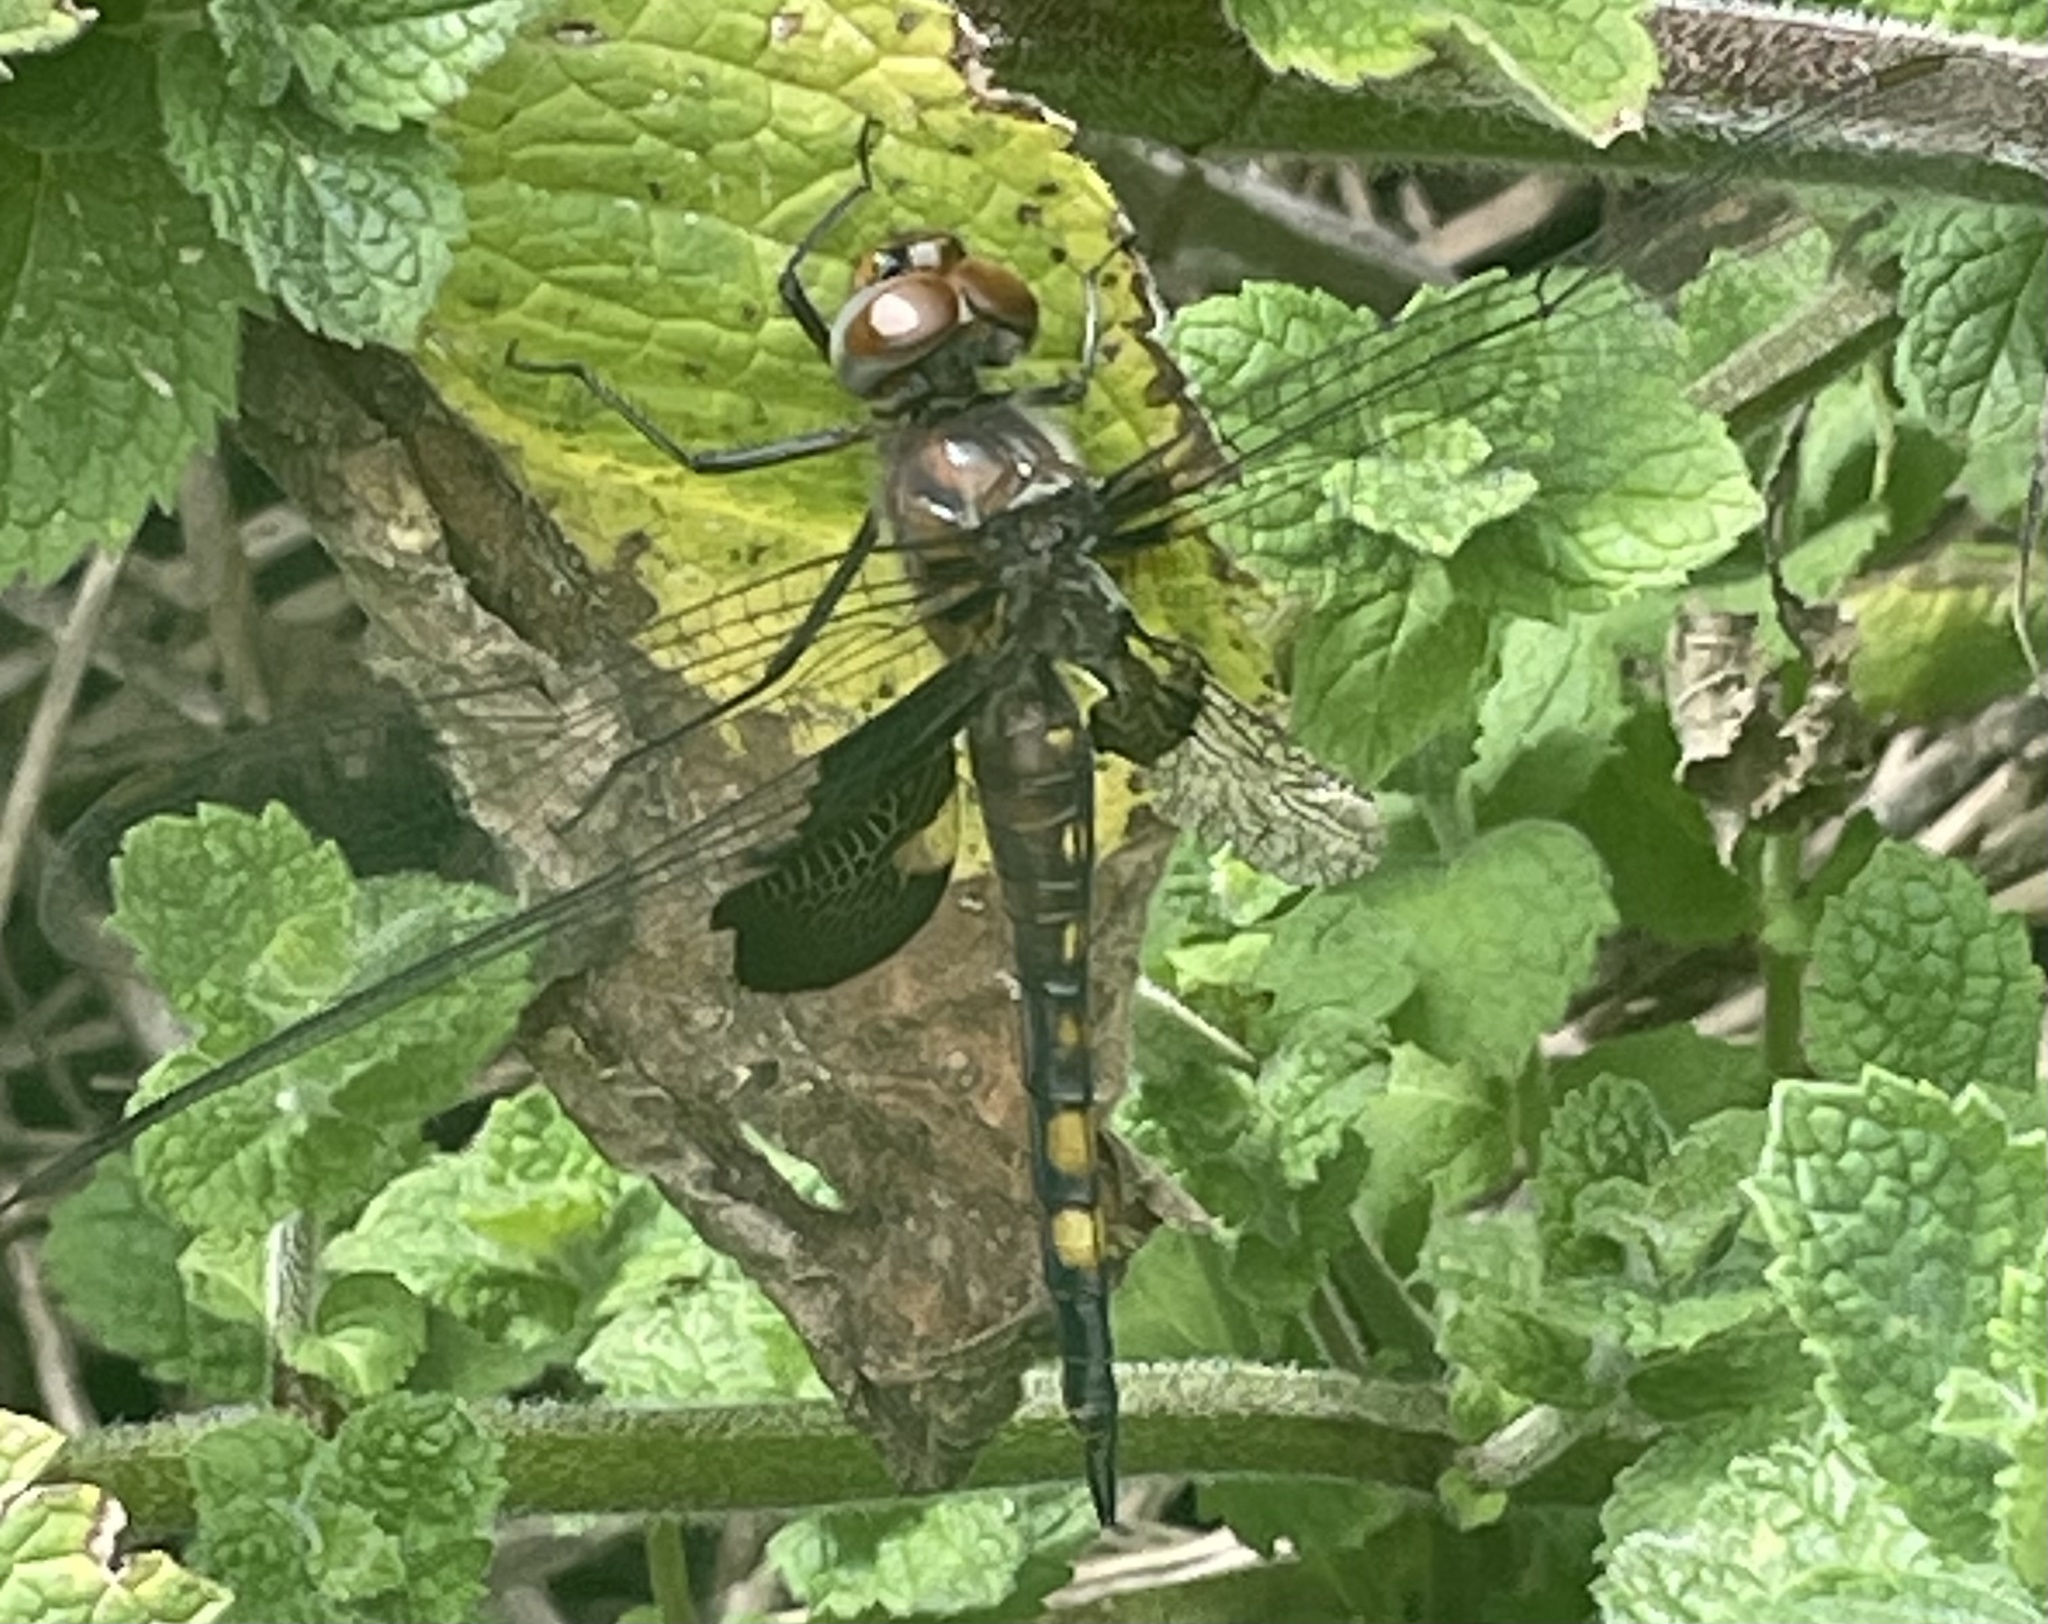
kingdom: Animalia
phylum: Arthropoda
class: Insecta
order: Odonata
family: Libellulidae
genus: Tramea
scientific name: Tramea lacerata
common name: Black saddlebags
